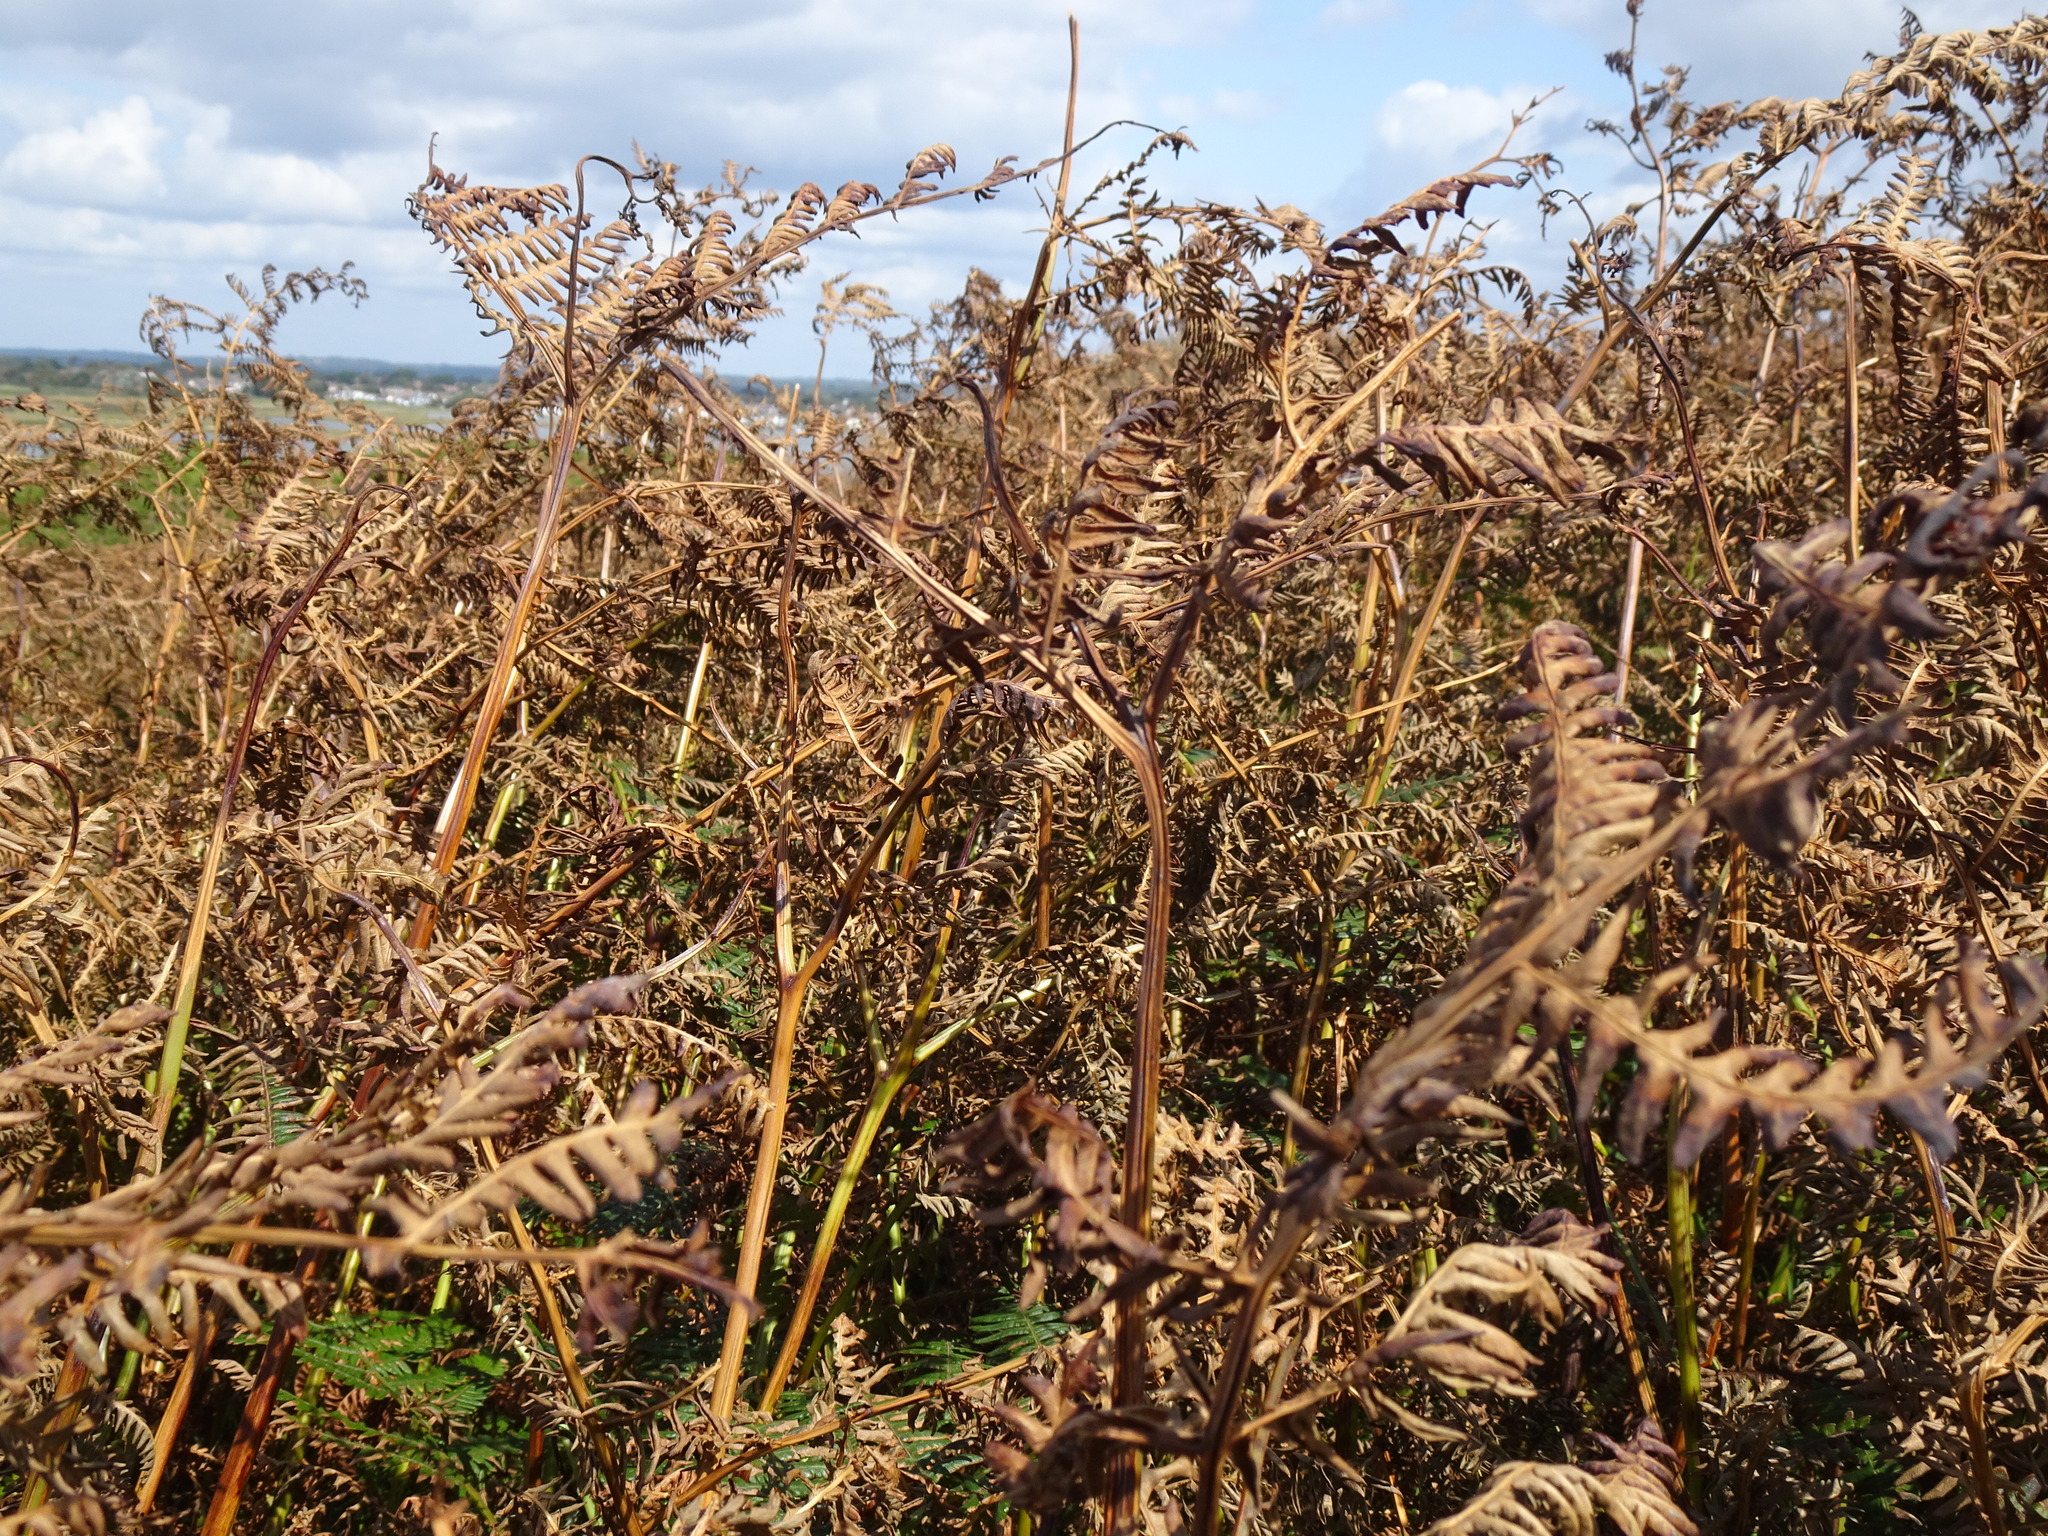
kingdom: Plantae
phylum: Tracheophyta
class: Polypodiopsida
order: Polypodiales
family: Dennstaedtiaceae
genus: Pteridium
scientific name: Pteridium aquilinum
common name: Bracken
